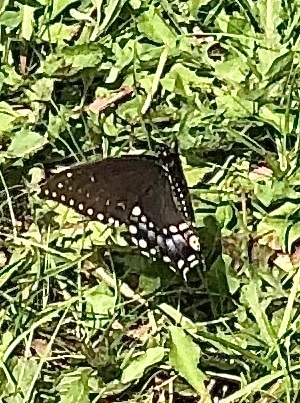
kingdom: Animalia
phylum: Arthropoda
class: Insecta
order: Lepidoptera
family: Papilionidae
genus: Papilio
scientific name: Papilio polyxenes
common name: Black swallowtail
